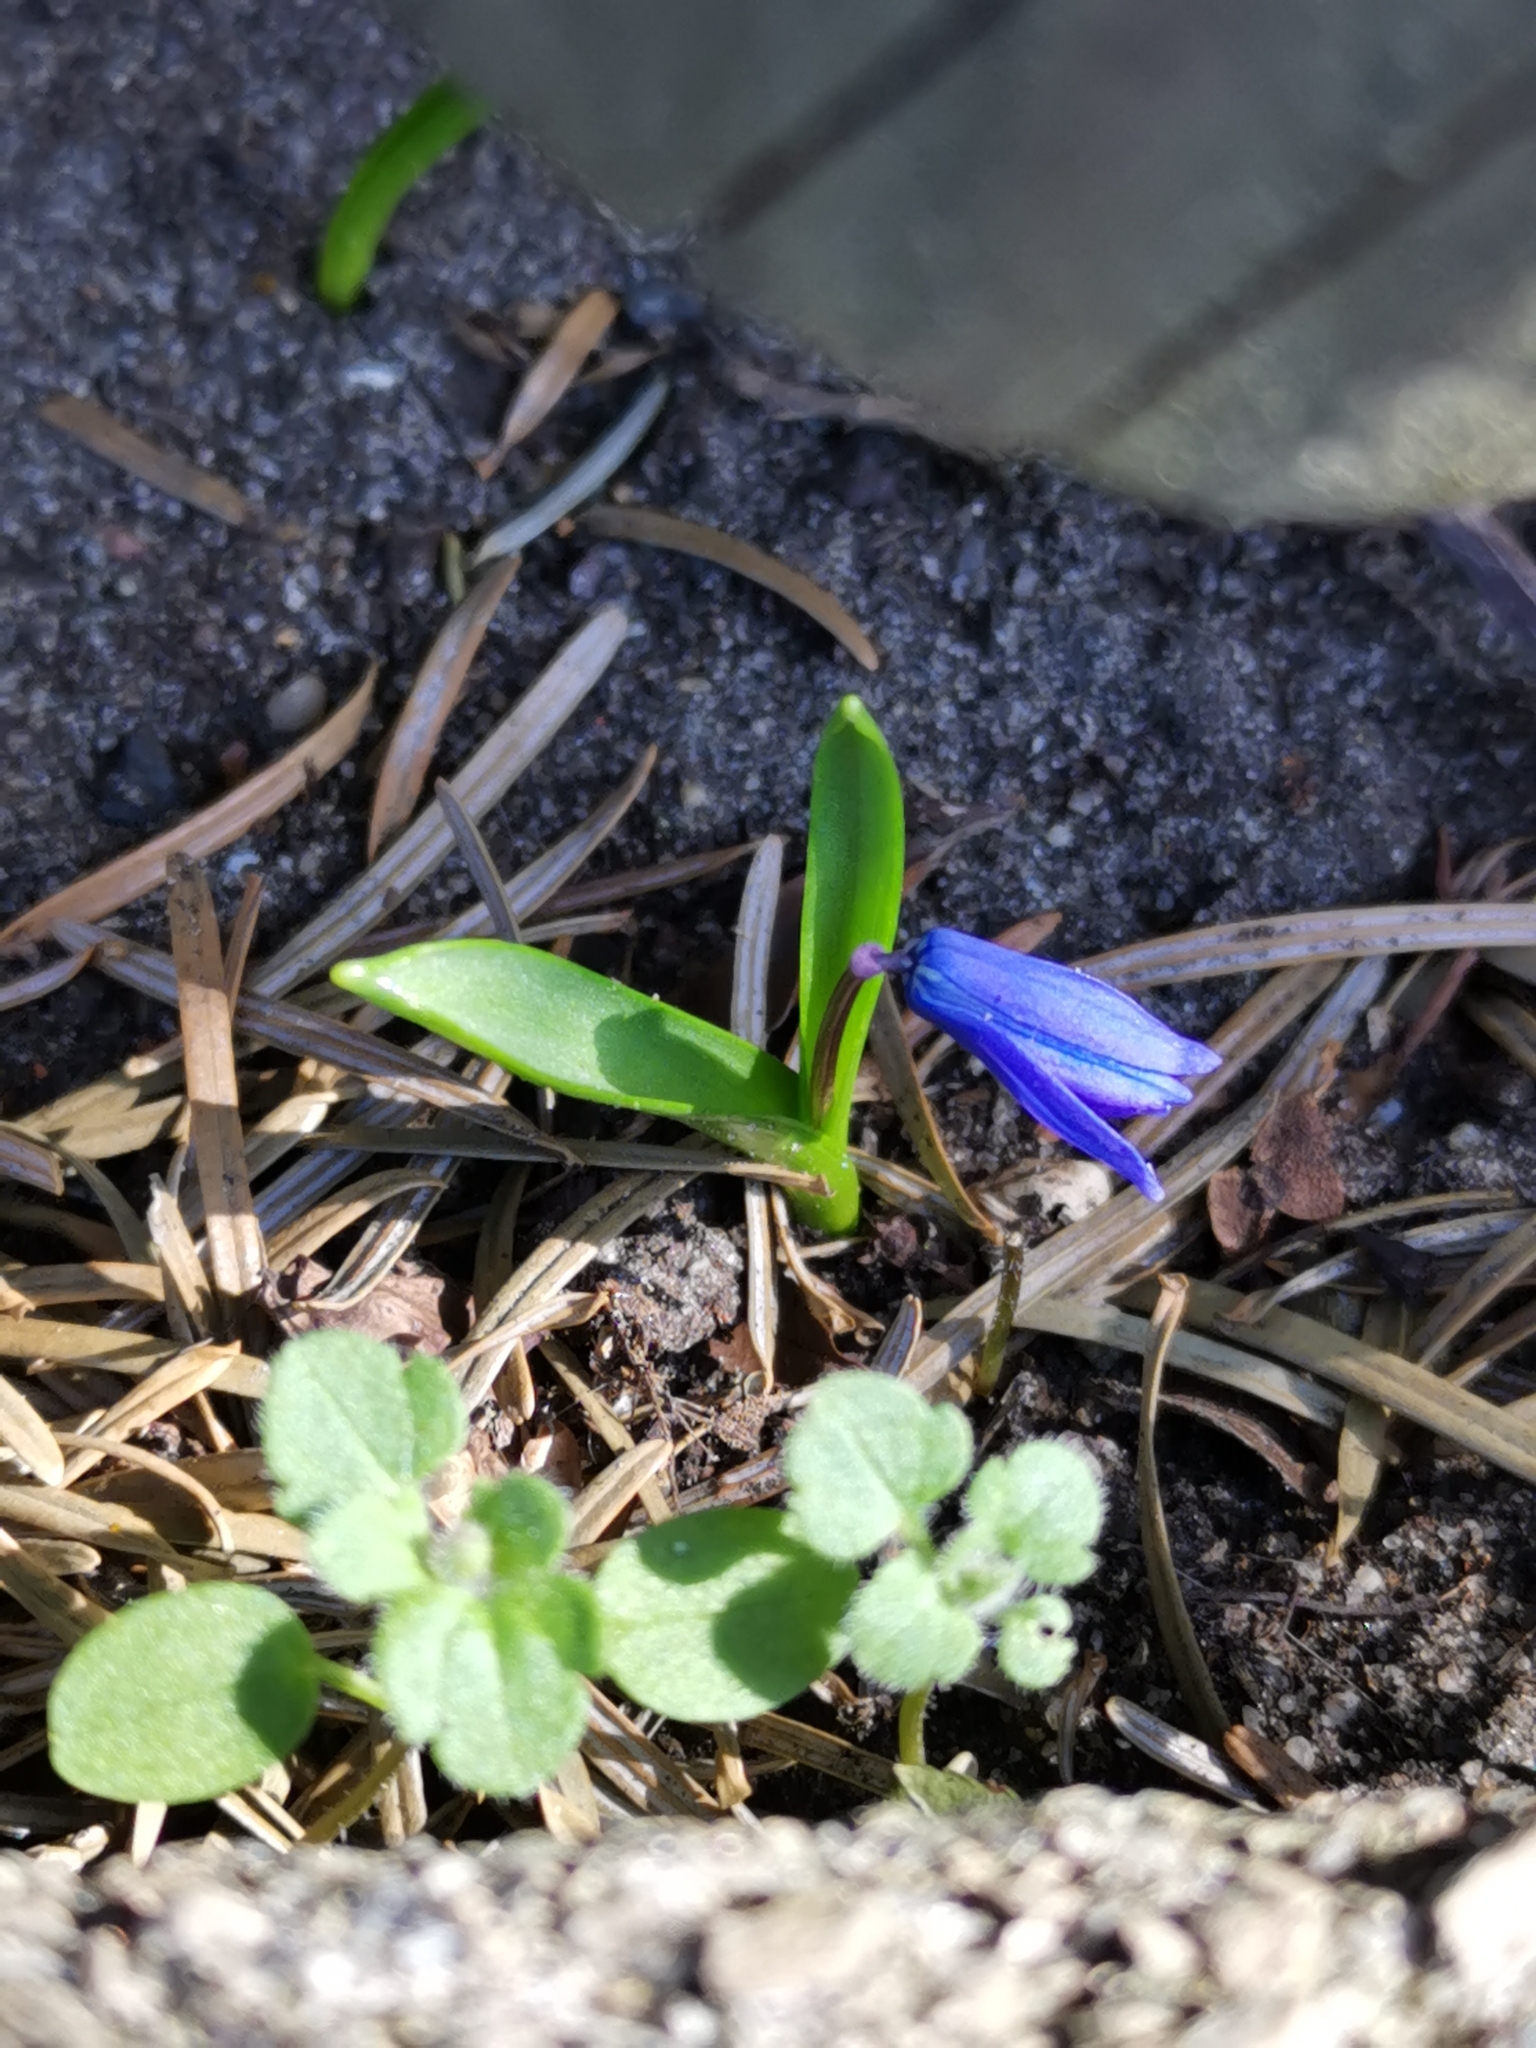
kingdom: Plantae
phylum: Tracheophyta
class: Liliopsida
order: Asparagales
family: Asparagaceae
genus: Scilla
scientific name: Scilla siberica
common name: Siberian squill
